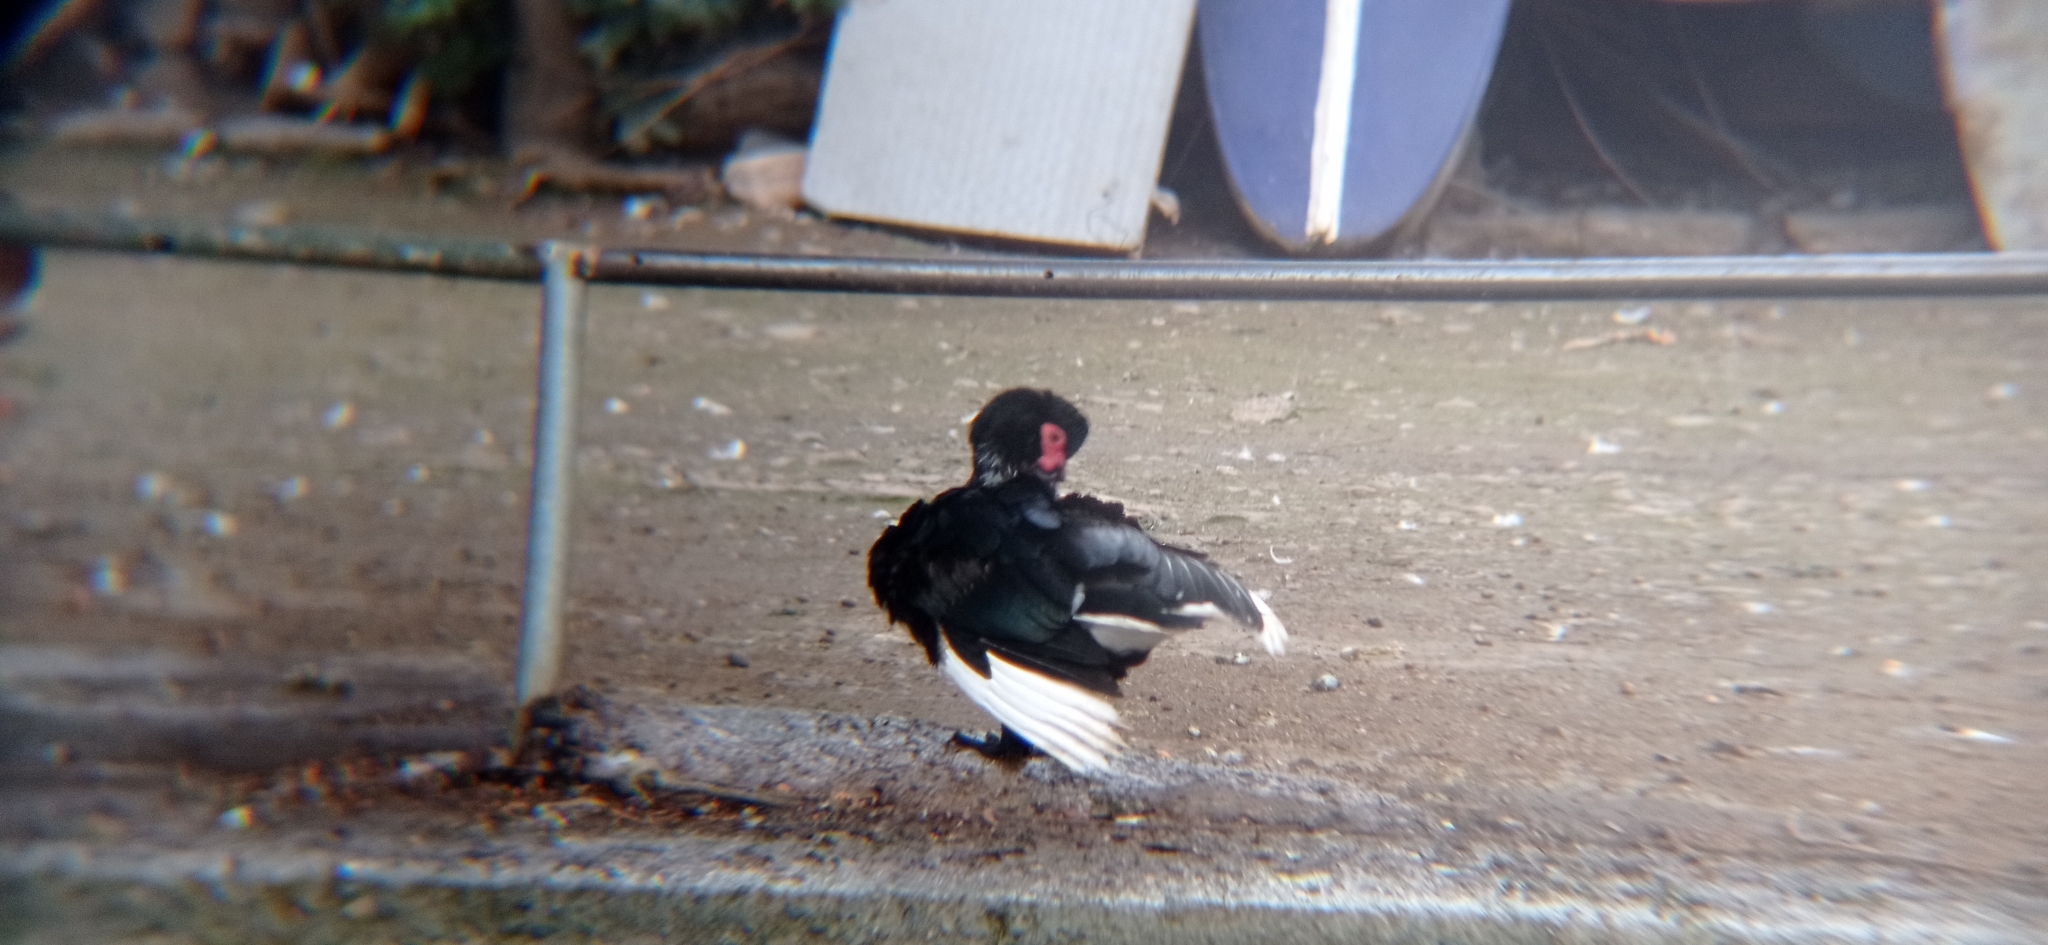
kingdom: Animalia
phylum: Chordata
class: Aves
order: Anseriformes
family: Anatidae
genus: Cairina
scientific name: Cairina moschata
